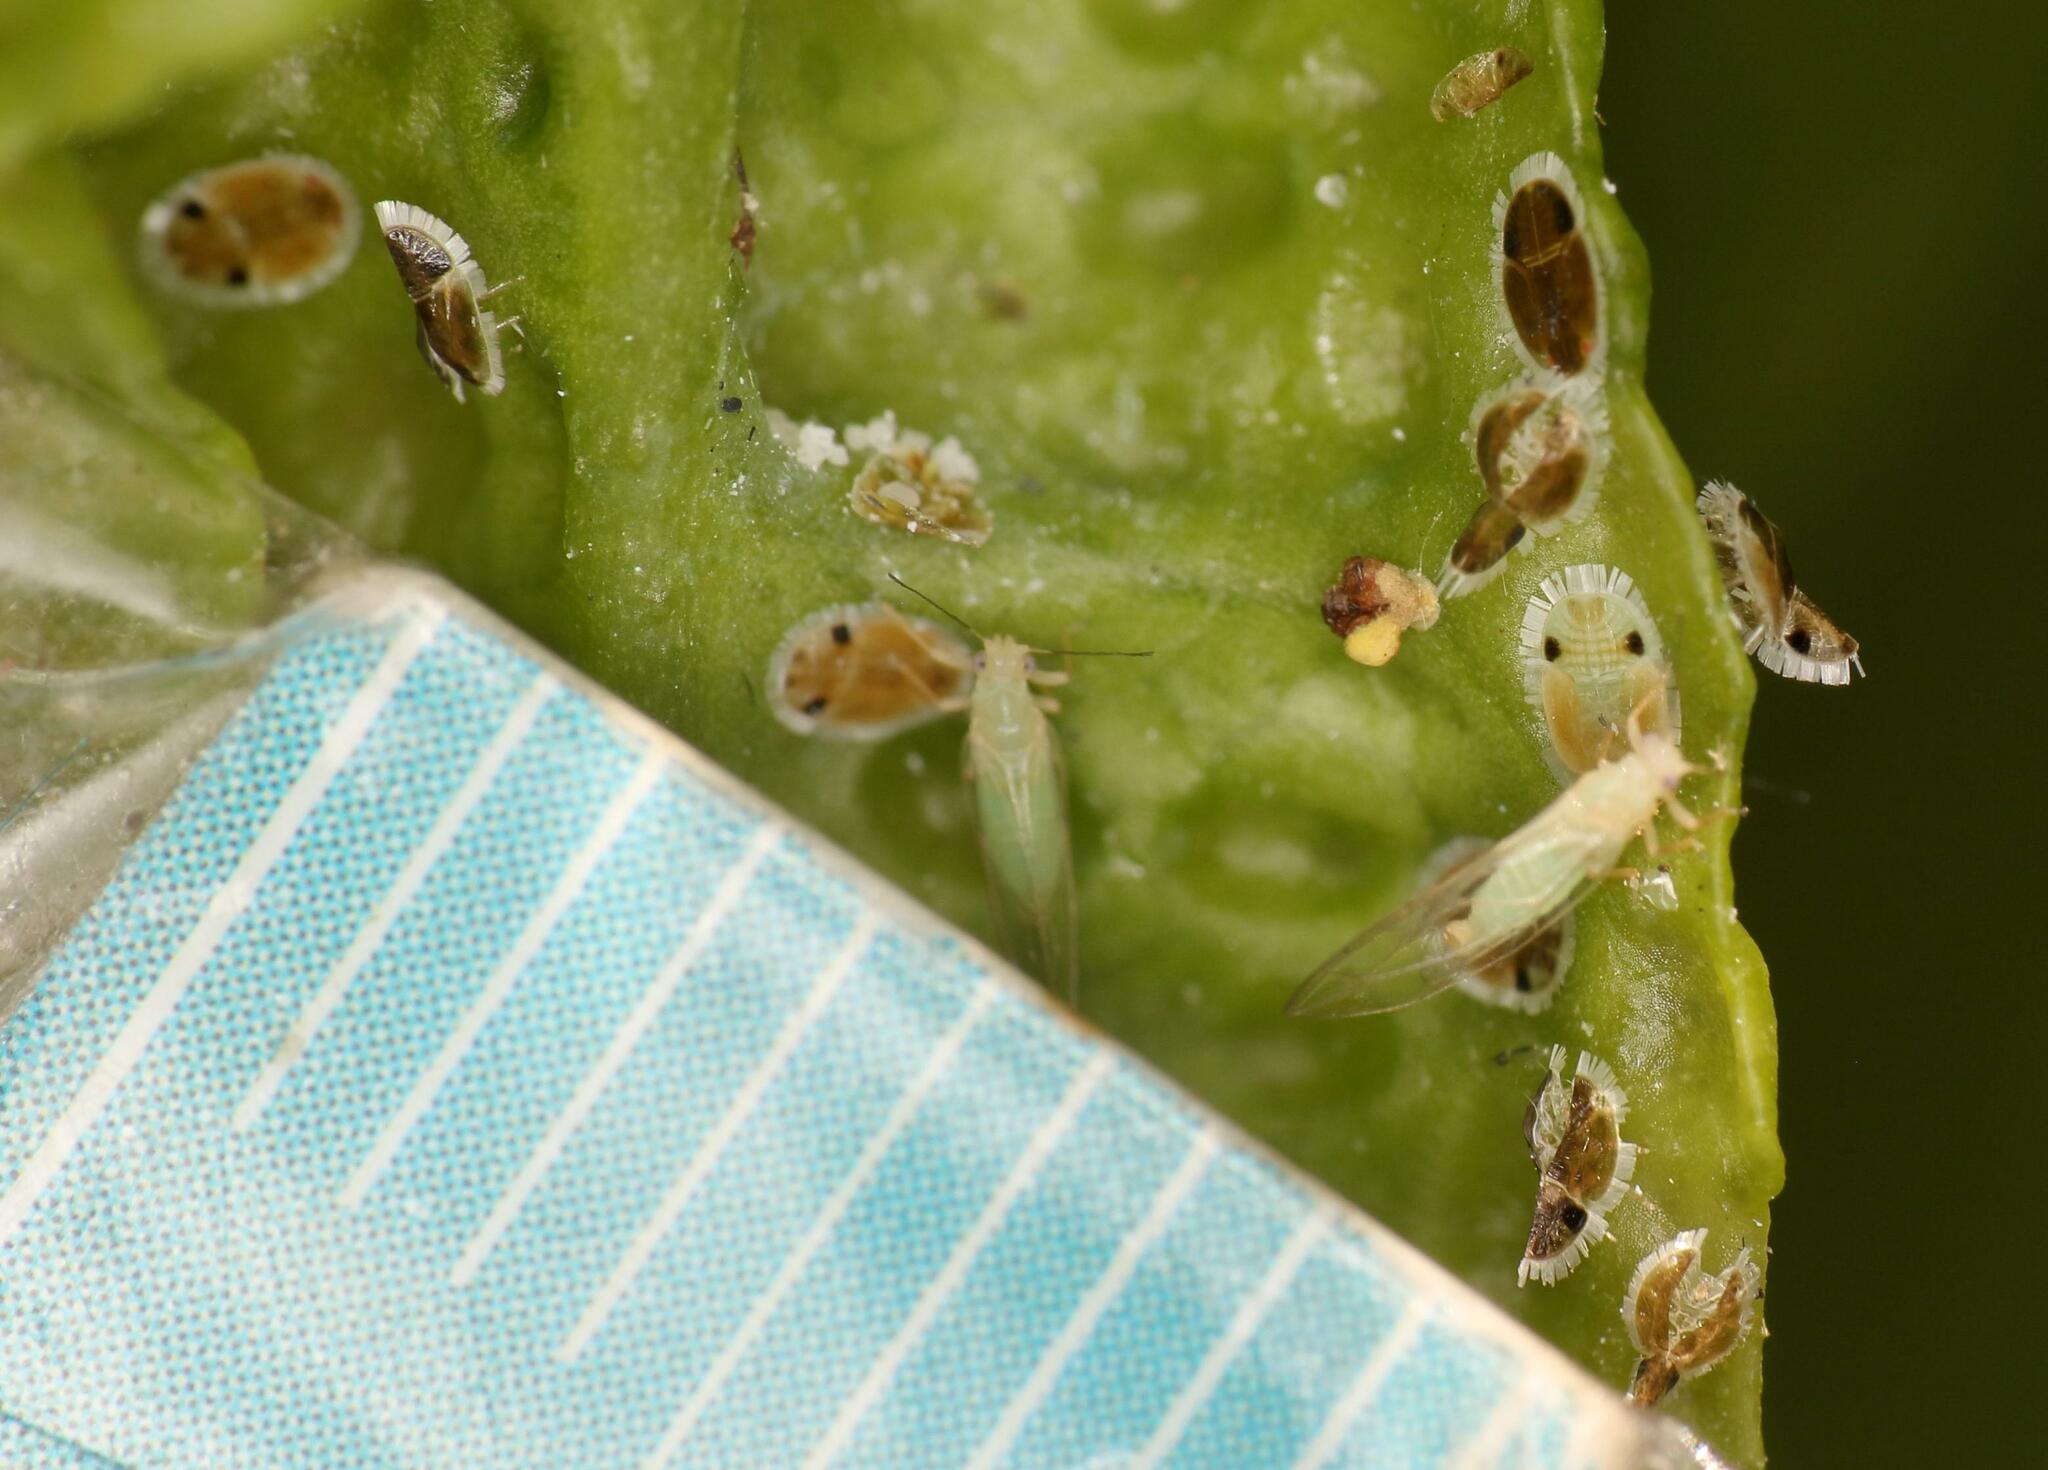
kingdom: Animalia
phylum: Arthropoda
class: Insecta
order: Hemiptera
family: Triozidae
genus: Trioza
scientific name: Trioza erytreae
